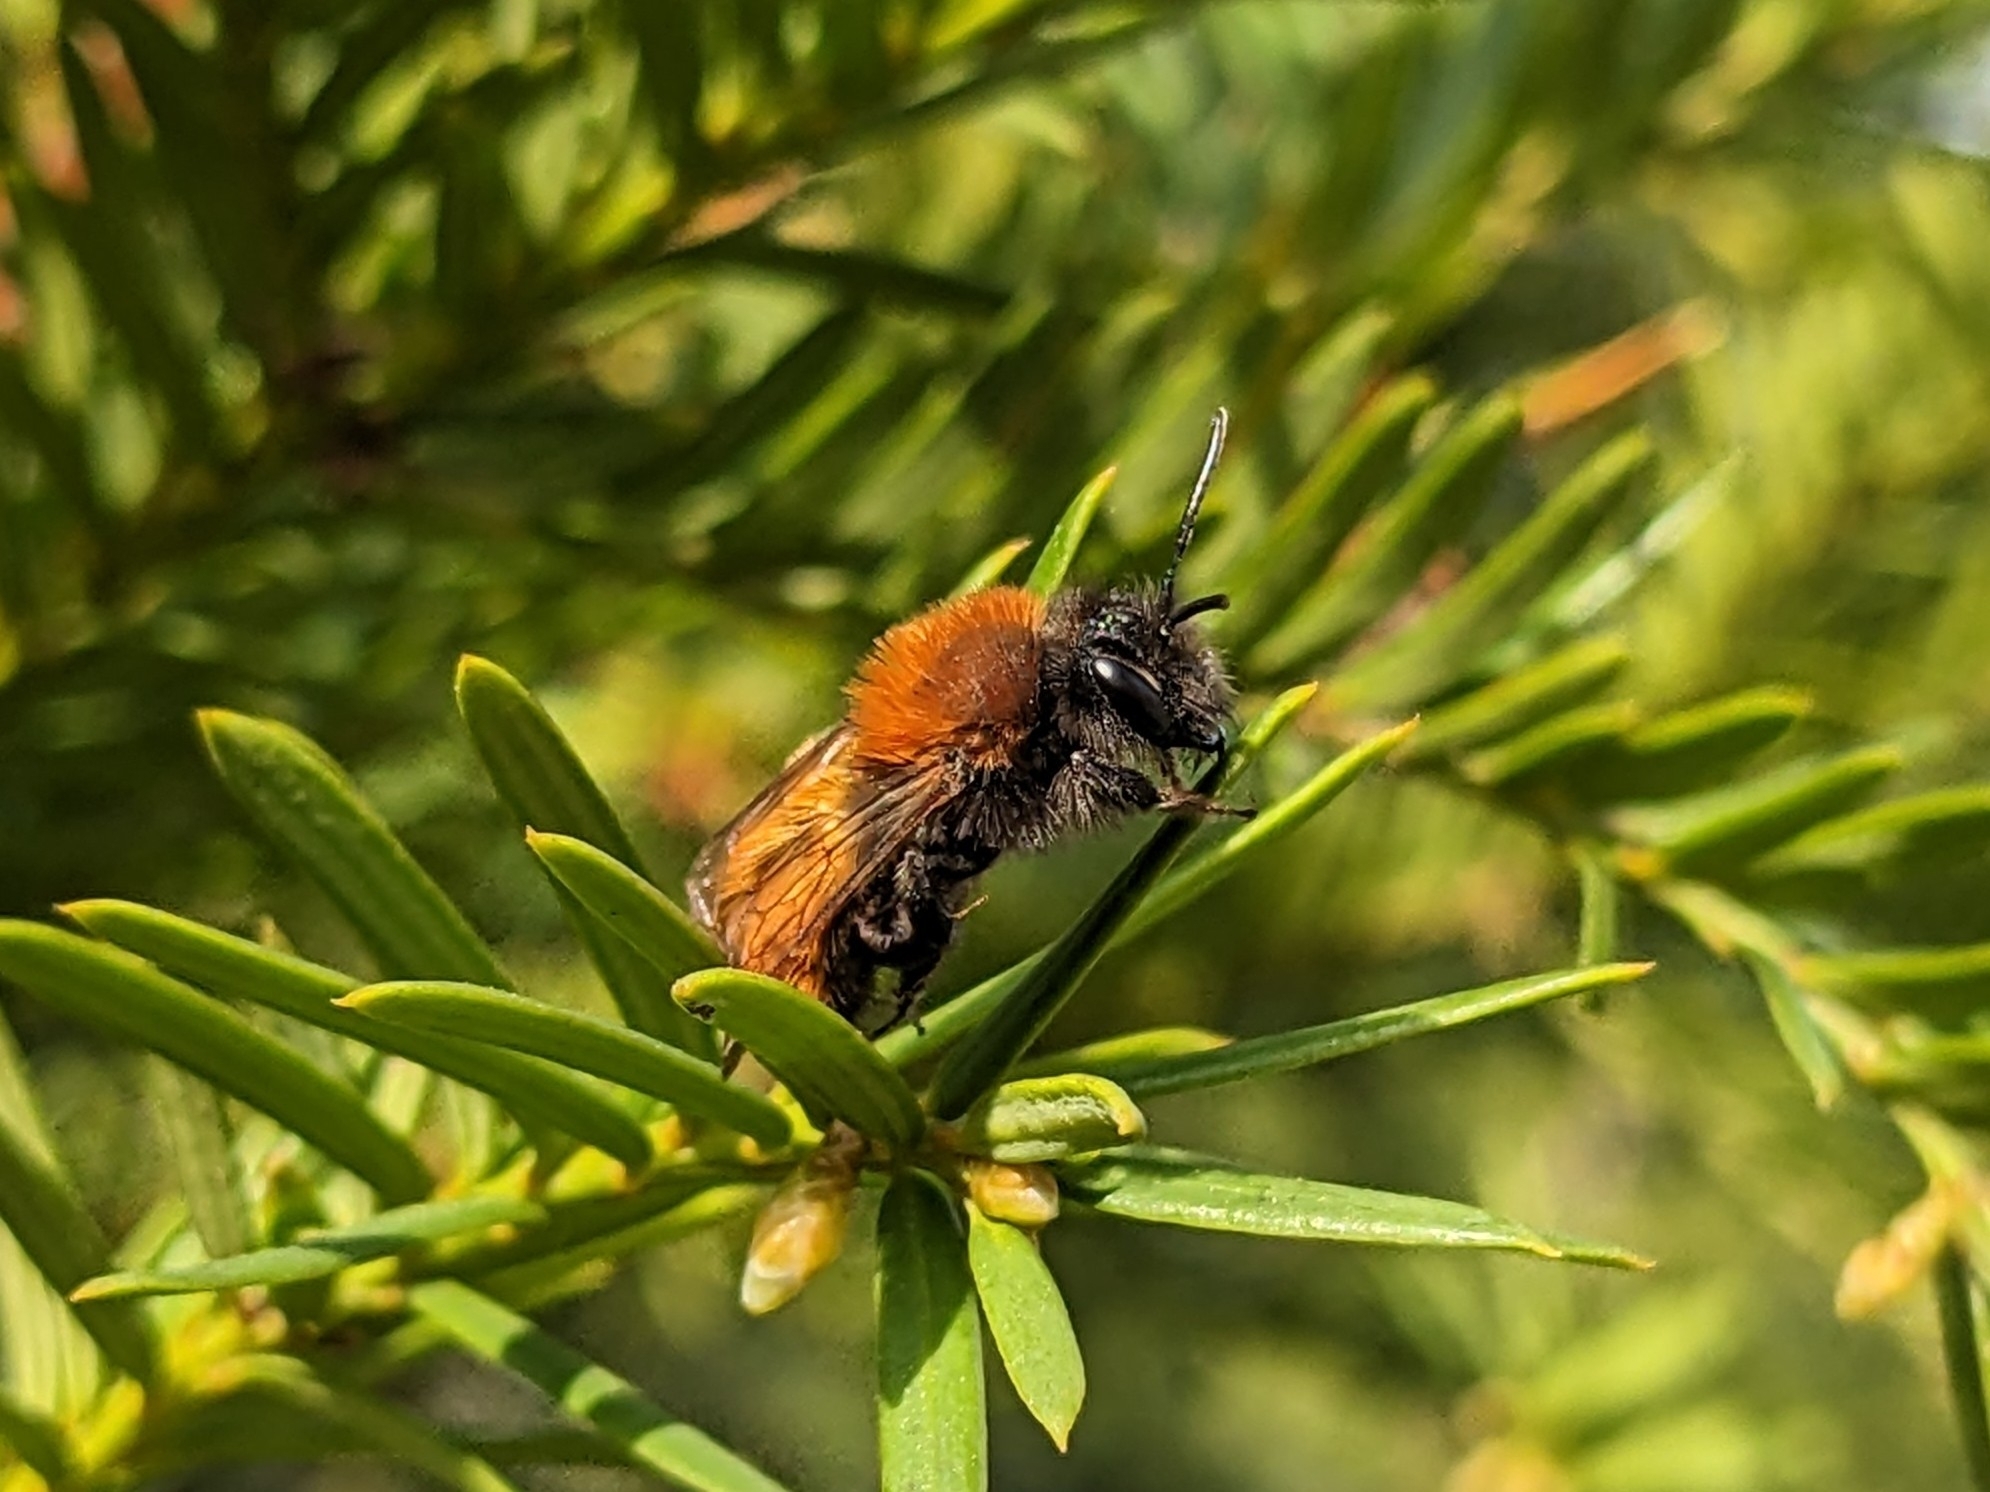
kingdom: Animalia
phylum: Arthropoda
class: Insecta
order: Hymenoptera
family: Andrenidae
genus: Andrena
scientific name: Andrena fulva
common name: Tawny mining bee
